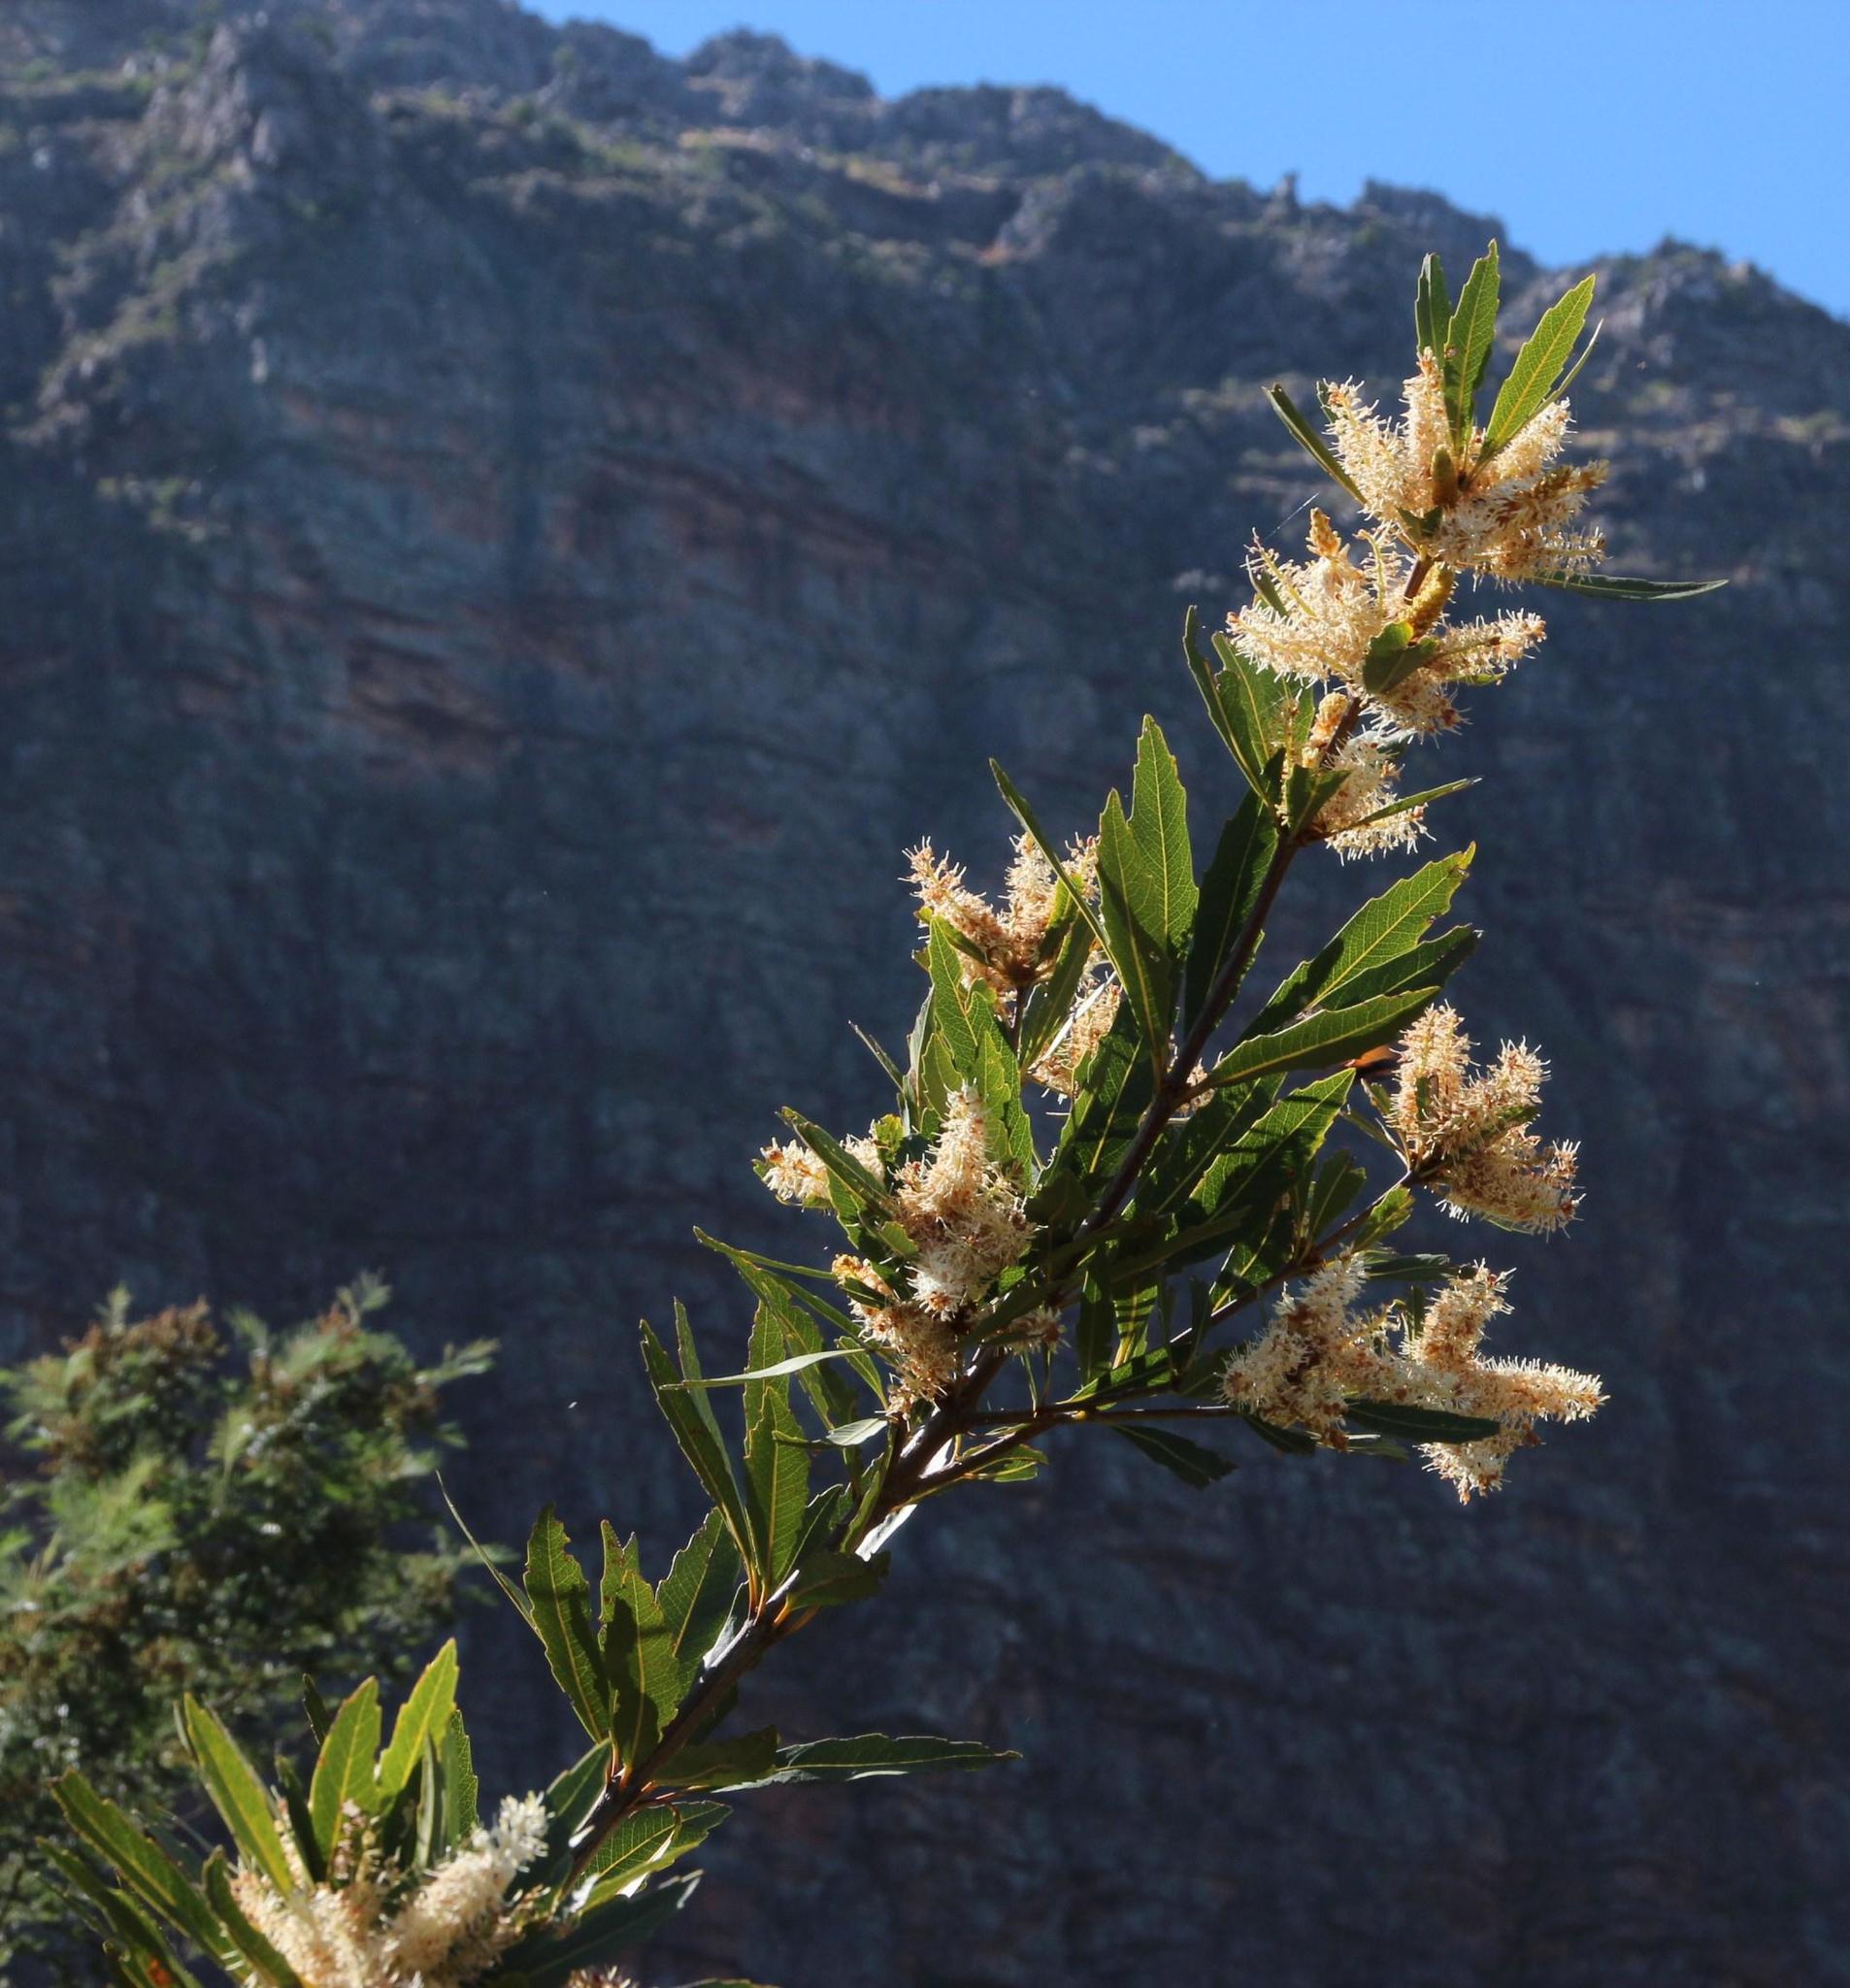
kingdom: Plantae
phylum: Tracheophyta
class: Magnoliopsida
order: Proteales
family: Proteaceae
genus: Brabejum
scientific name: Brabejum stellatifolium
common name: Wild almond
